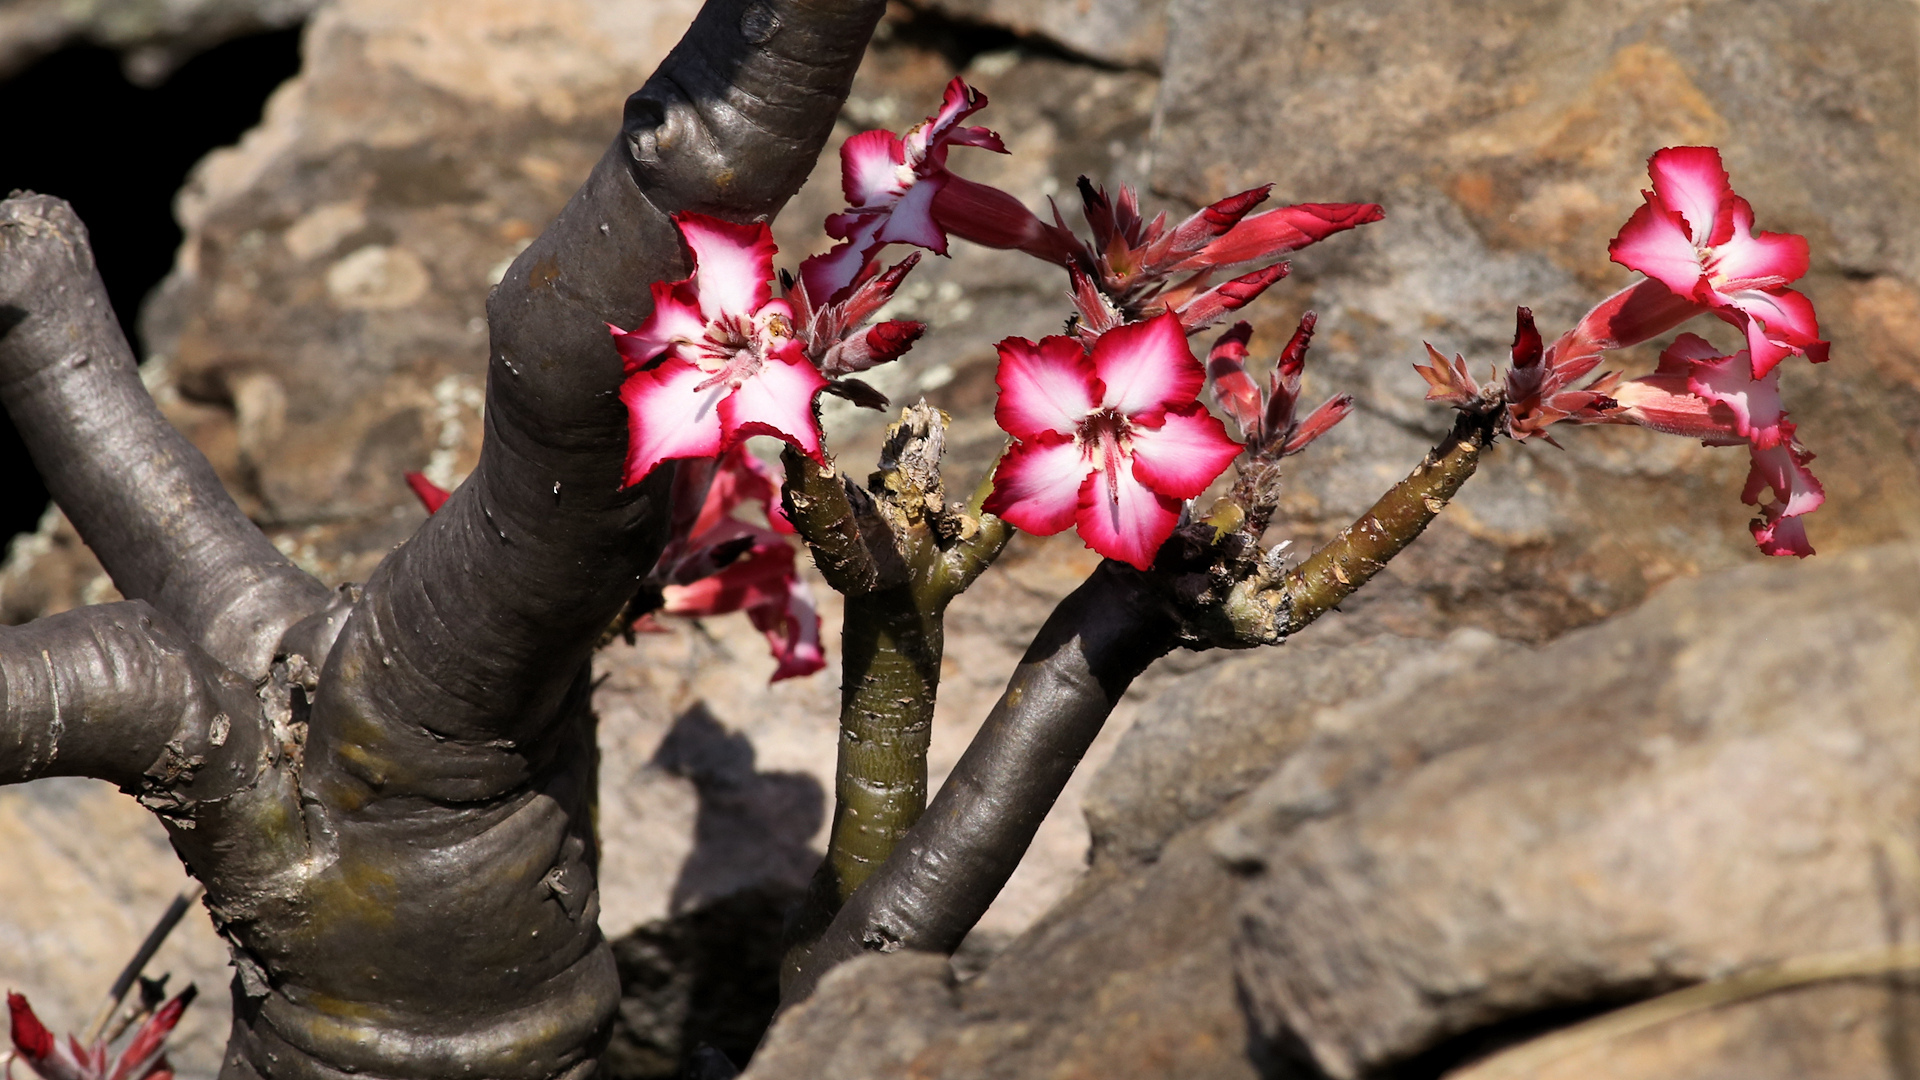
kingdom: Plantae
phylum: Tracheophyta
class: Magnoliopsida
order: Gentianales
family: Apocynaceae
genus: Adenium
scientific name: Adenium obesum
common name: Desert-rose
